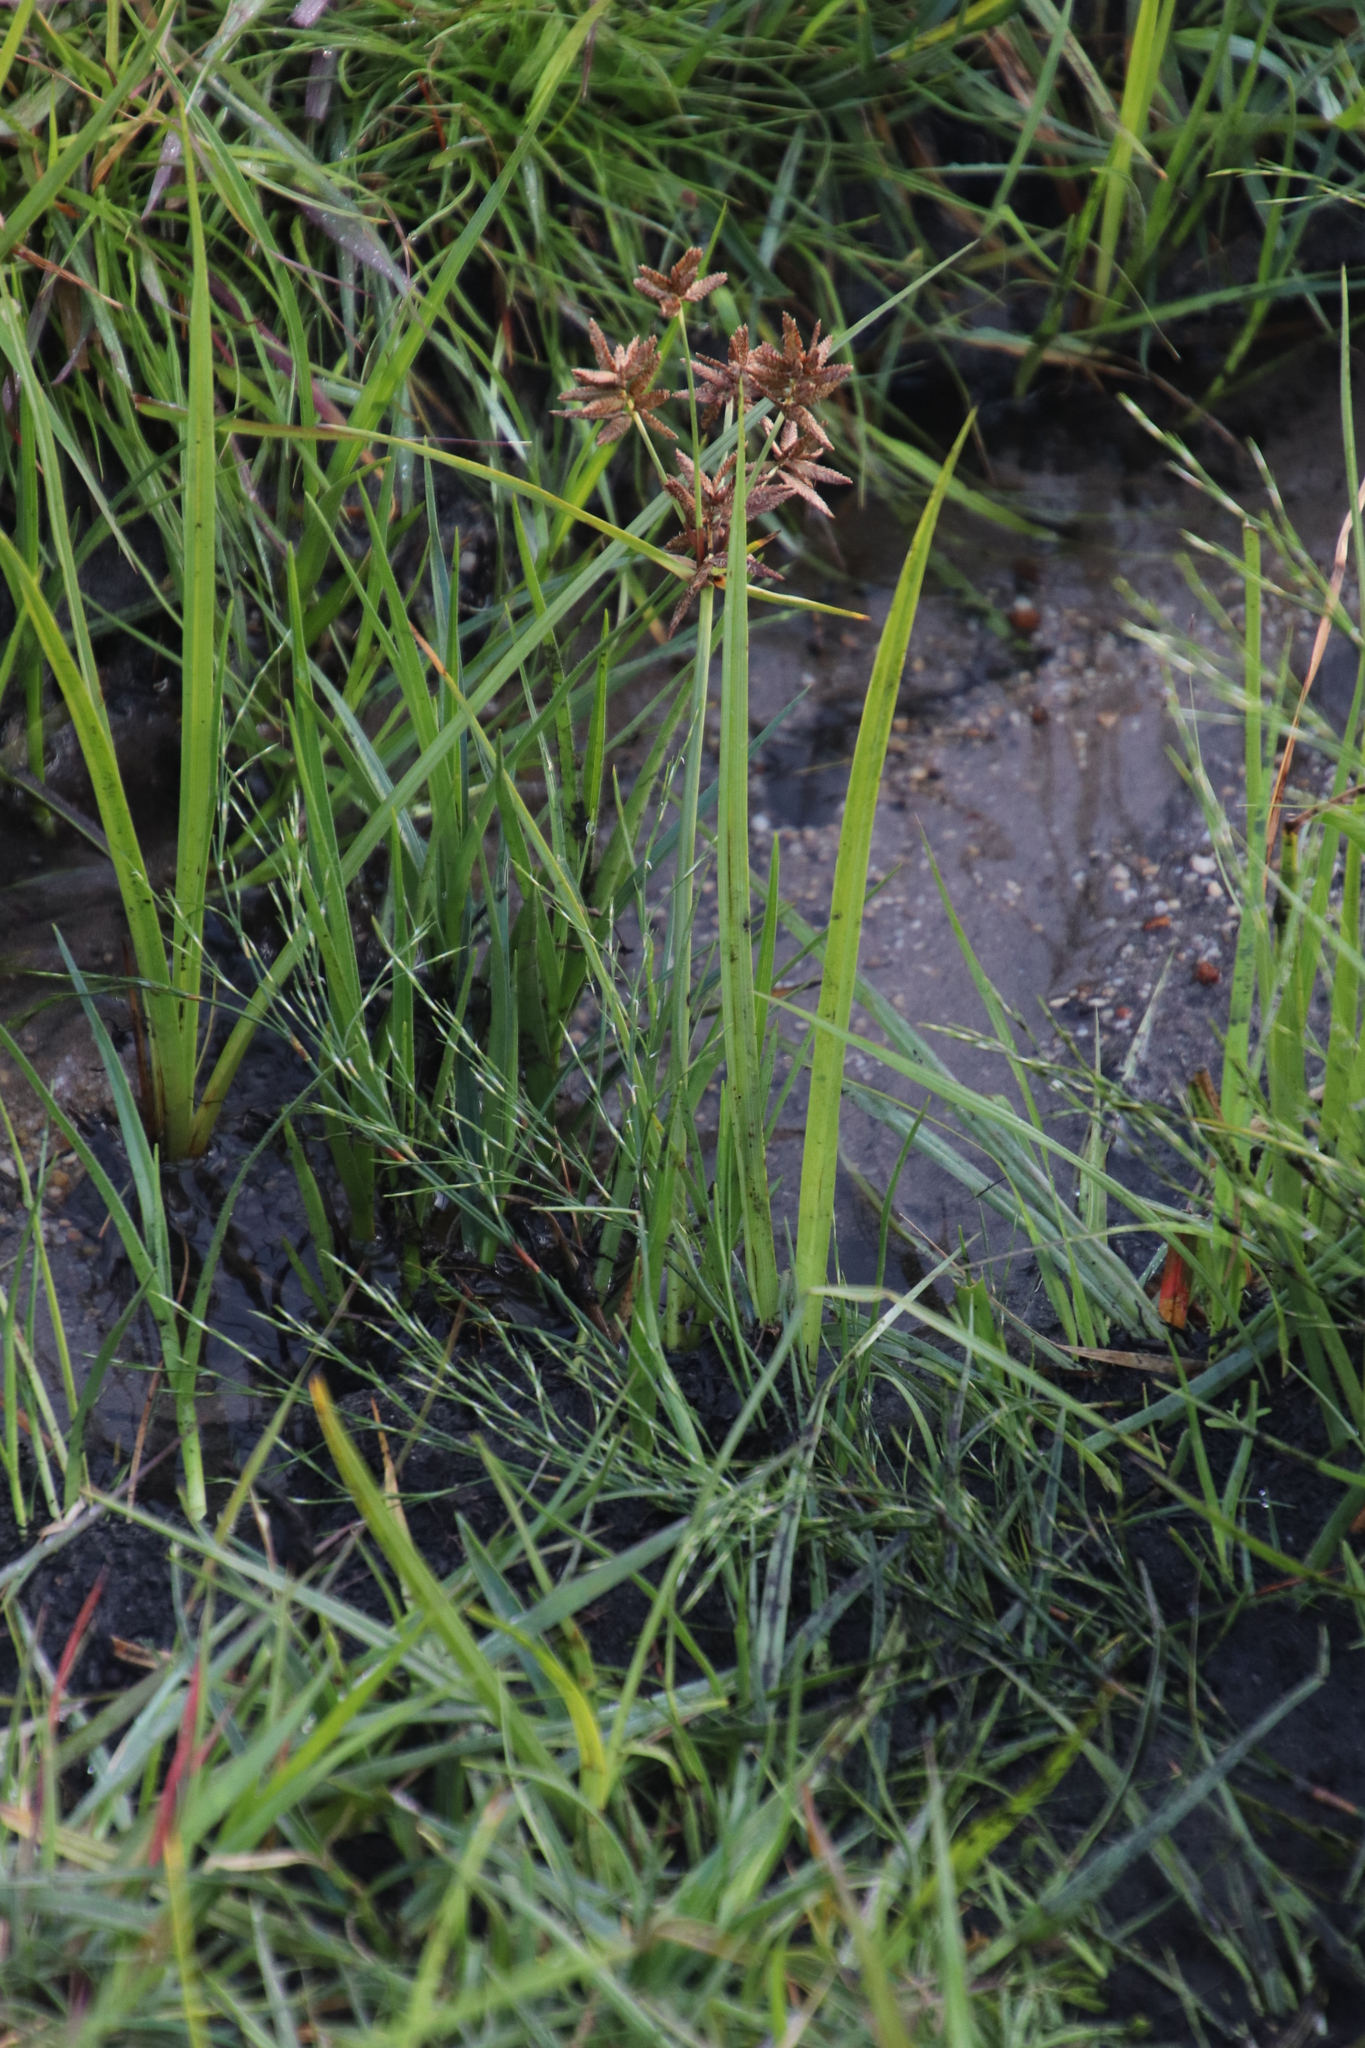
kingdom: Plantae
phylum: Tracheophyta
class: Liliopsida
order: Poales
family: Cyperaceae
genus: Cyperus
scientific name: Cyperus nitidus
